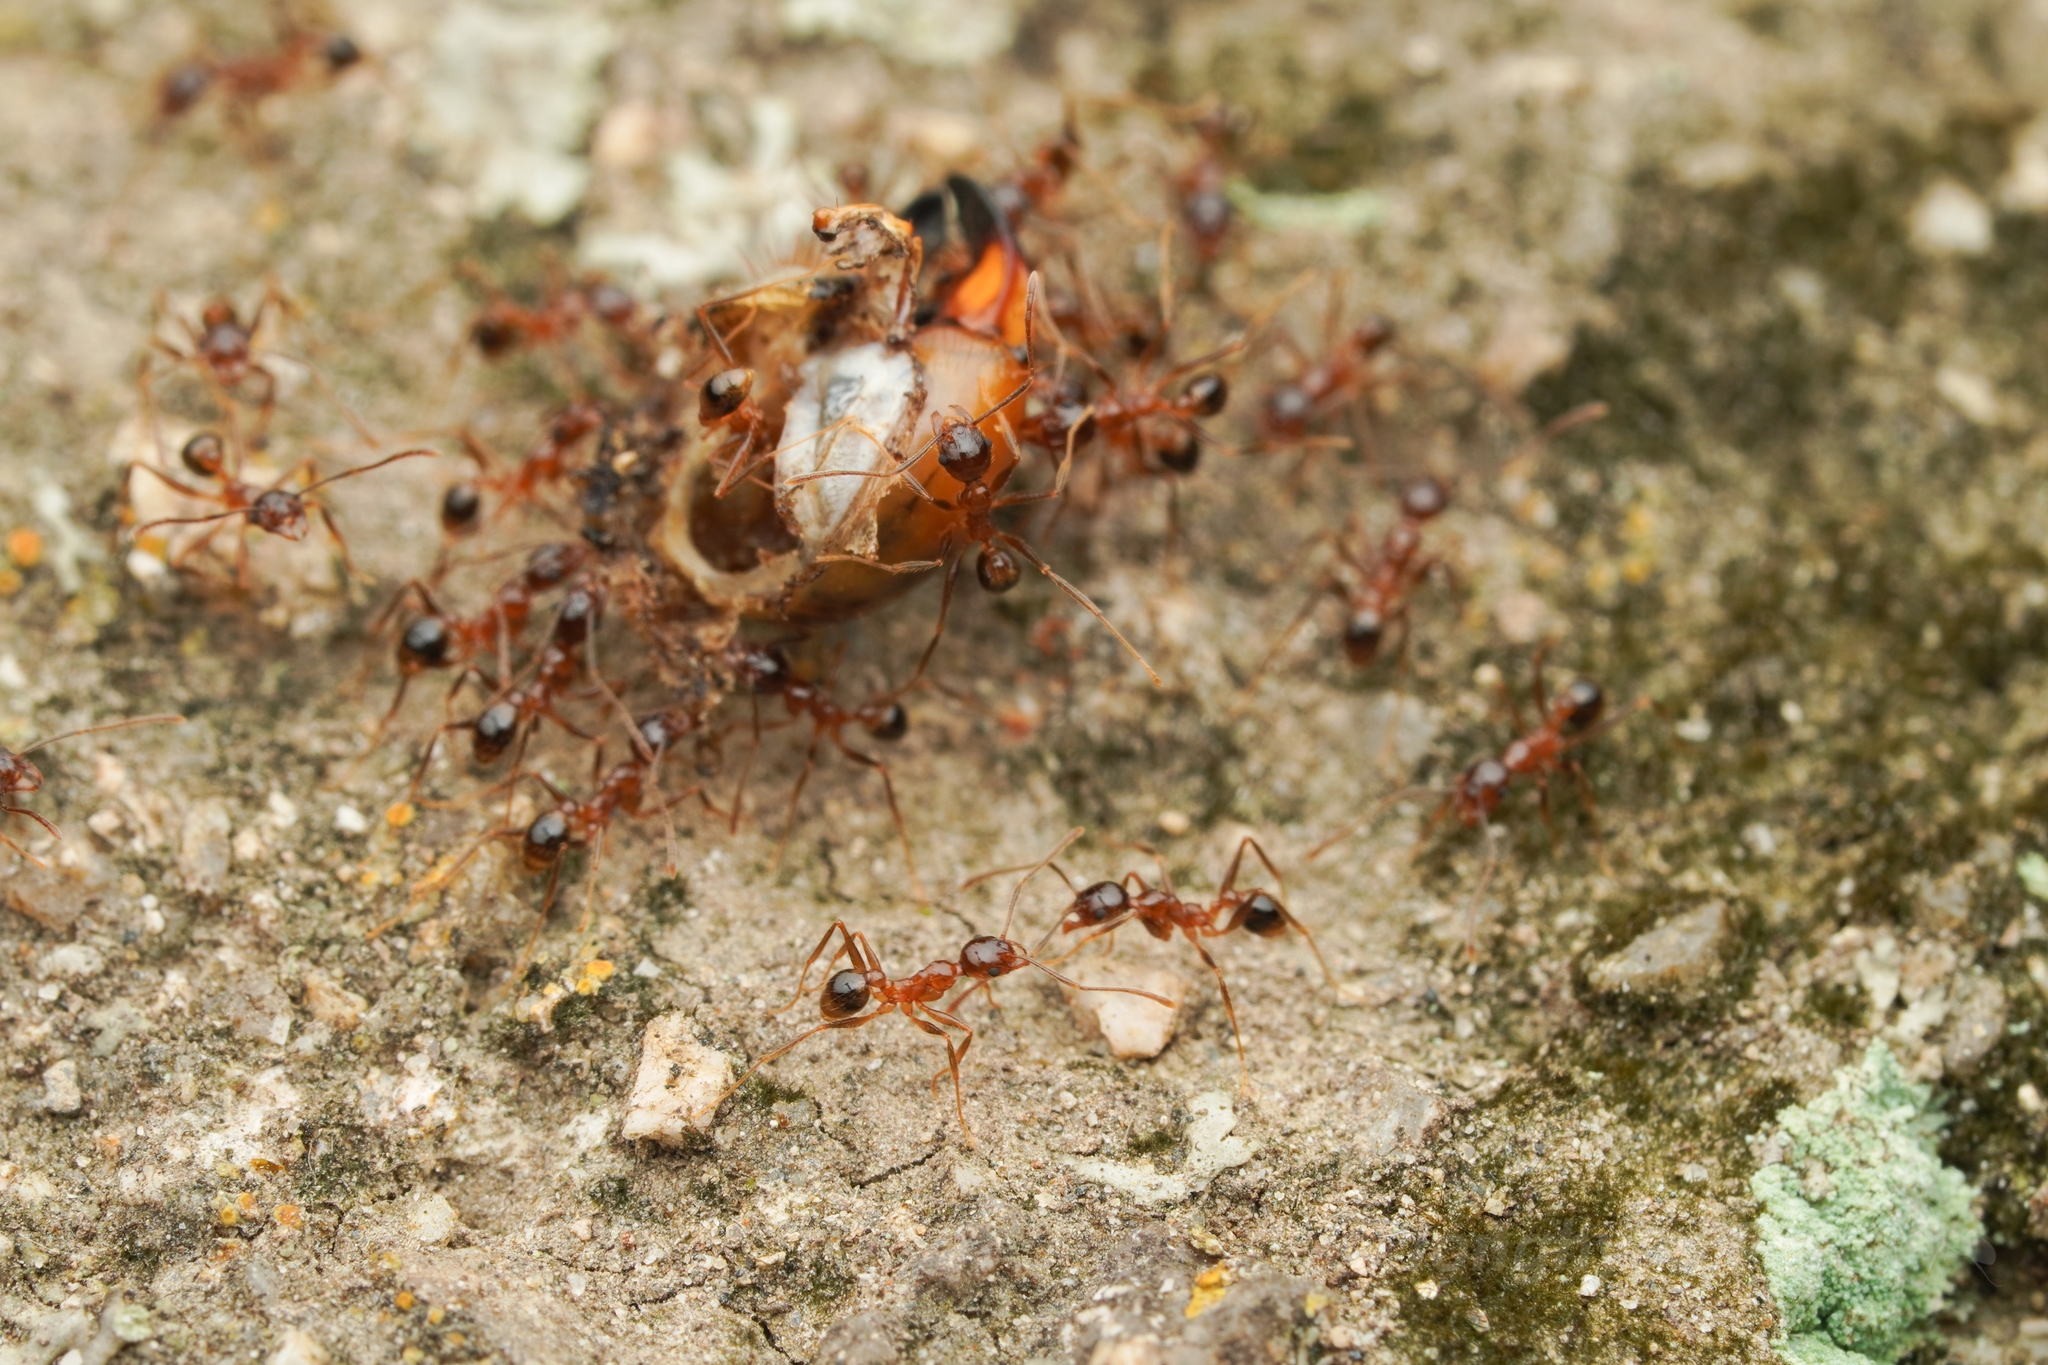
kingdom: Animalia
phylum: Arthropoda
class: Insecta
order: Hymenoptera
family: Formicidae
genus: Pheidole
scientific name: Pheidole noda
